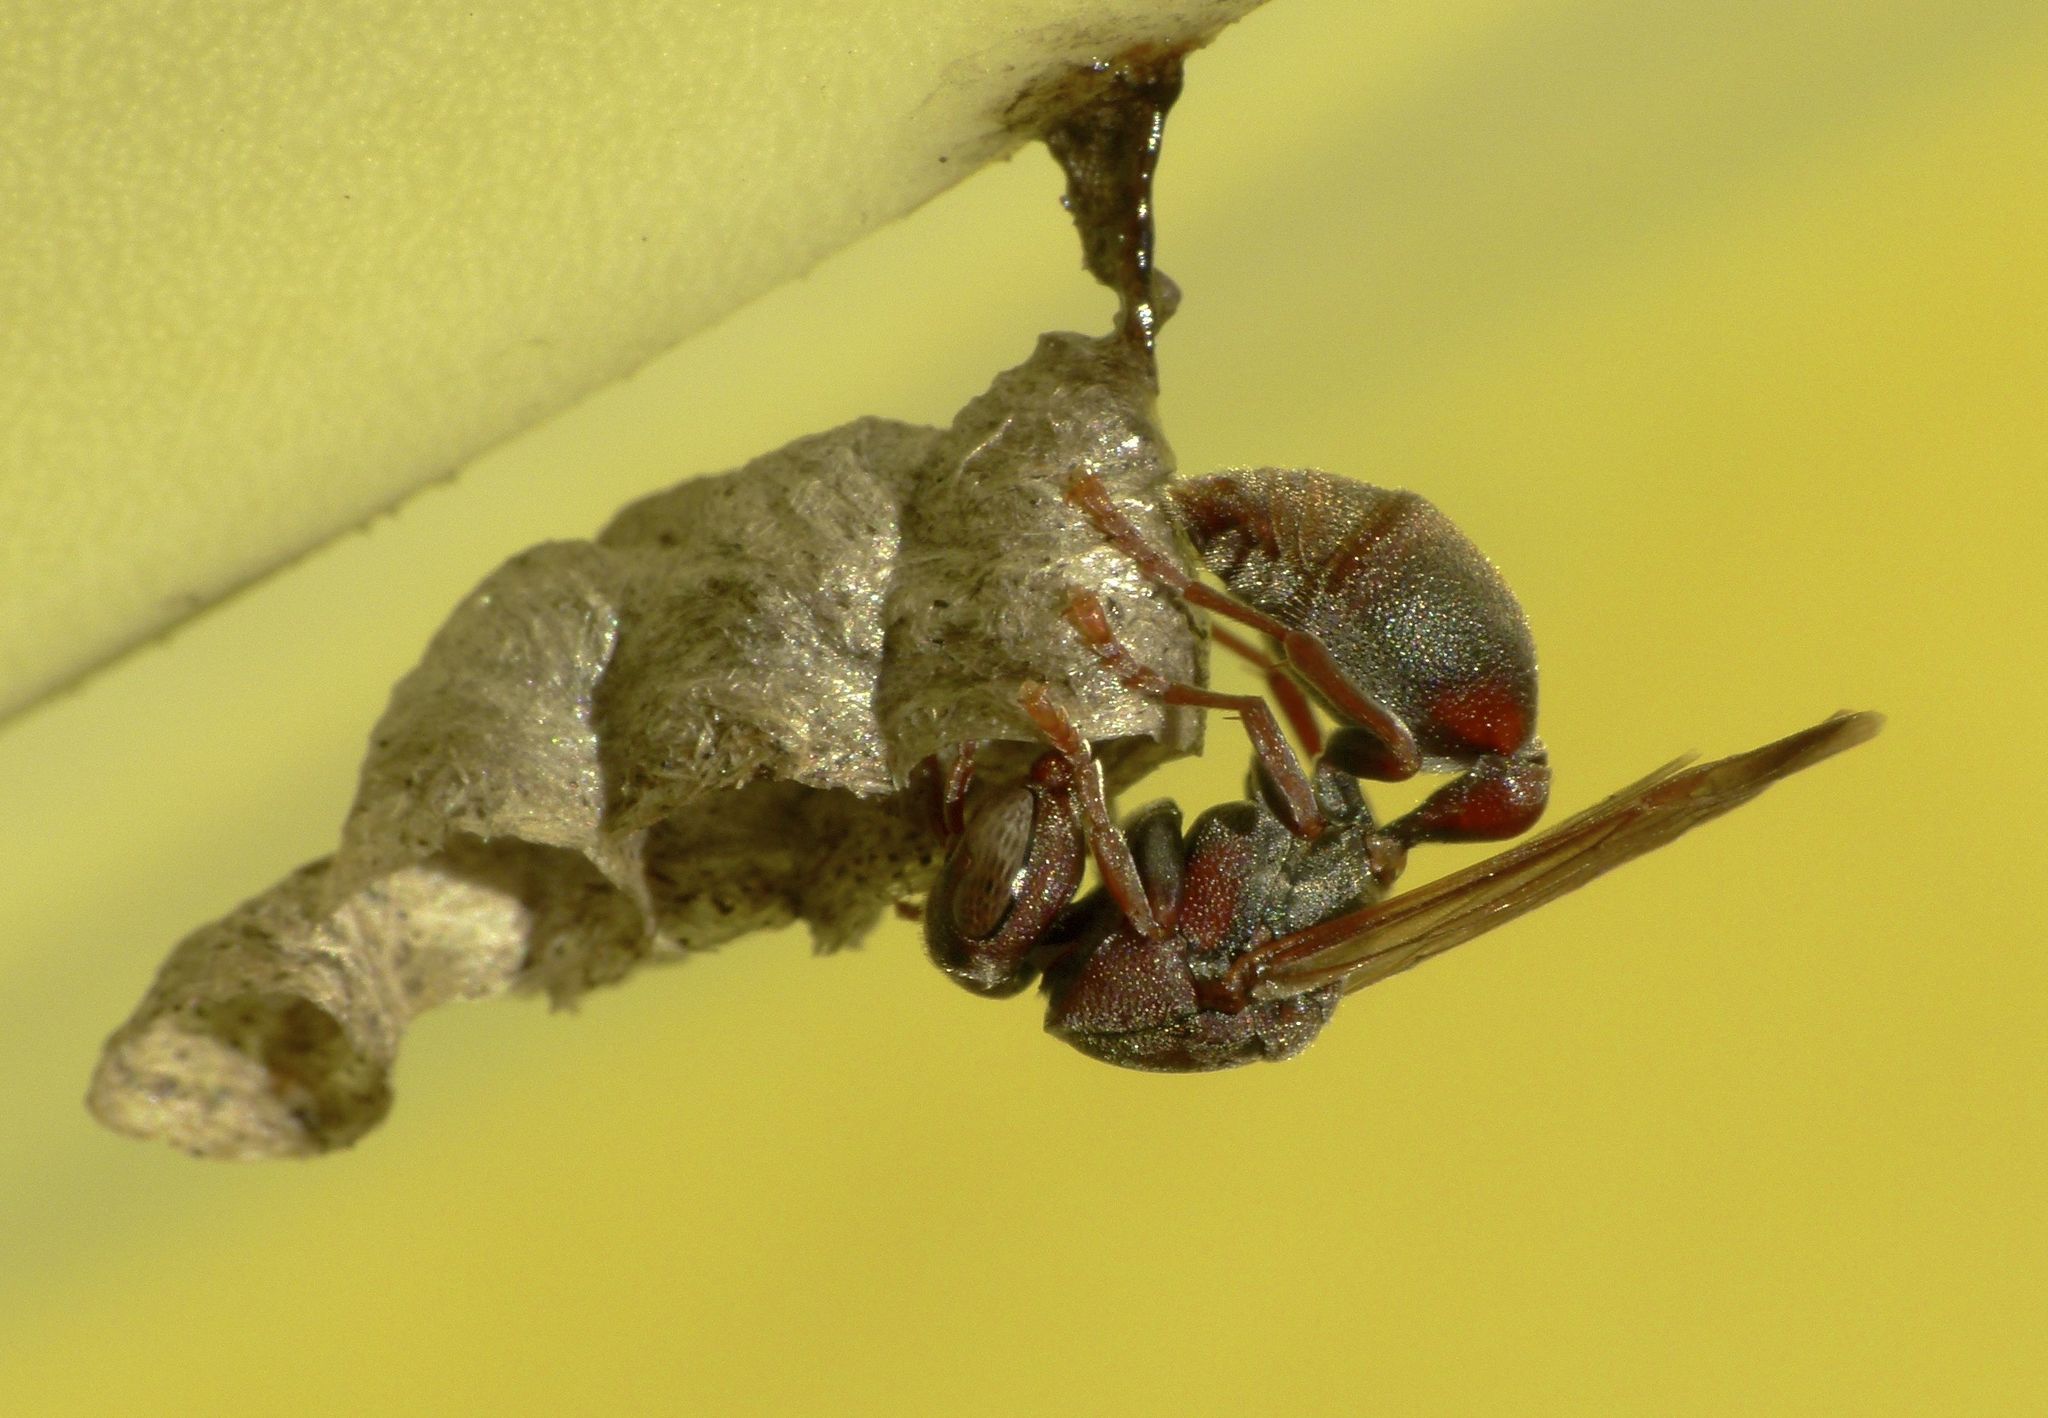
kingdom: Animalia
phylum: Arthropoda
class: Insecta
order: Hymenoptera
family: Vespidae
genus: Ropalidia
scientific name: Ropalidia revolutionalis
